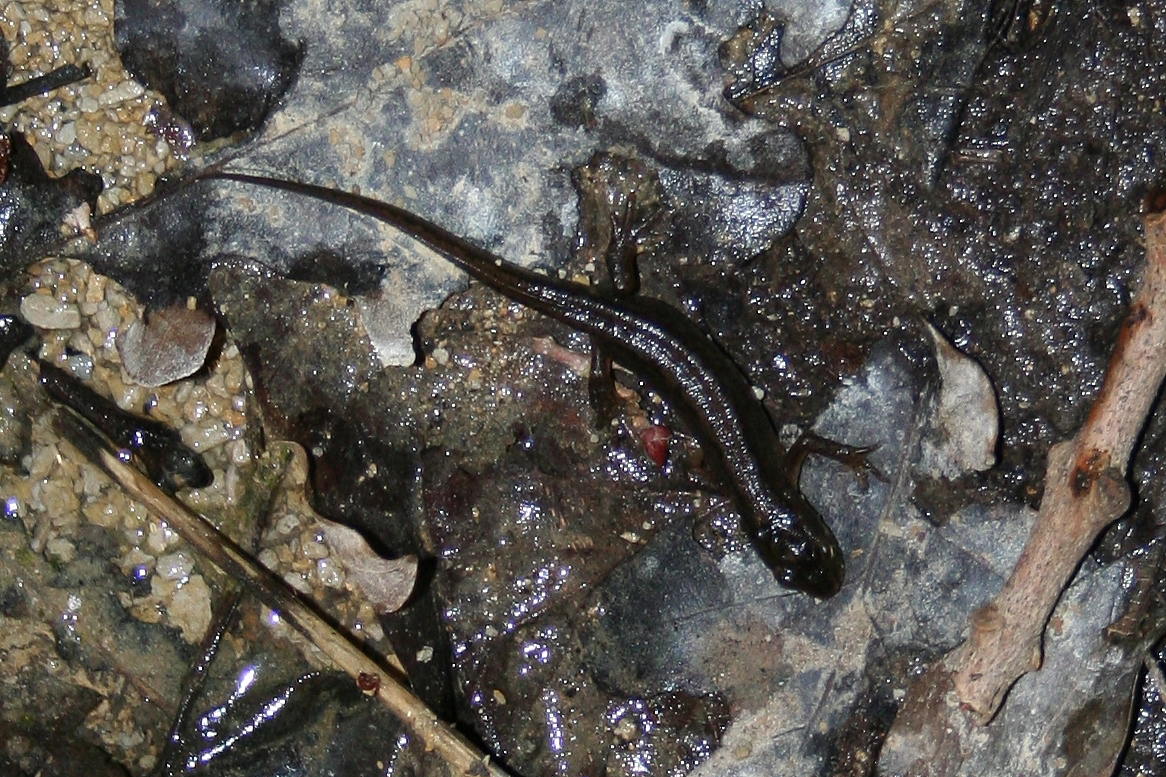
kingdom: Animalia
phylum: Chordata
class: Amphibia
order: Caudata
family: Salamandridae
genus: Lissotriton
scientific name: Lissotriton vulgaris
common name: Smooth newt
